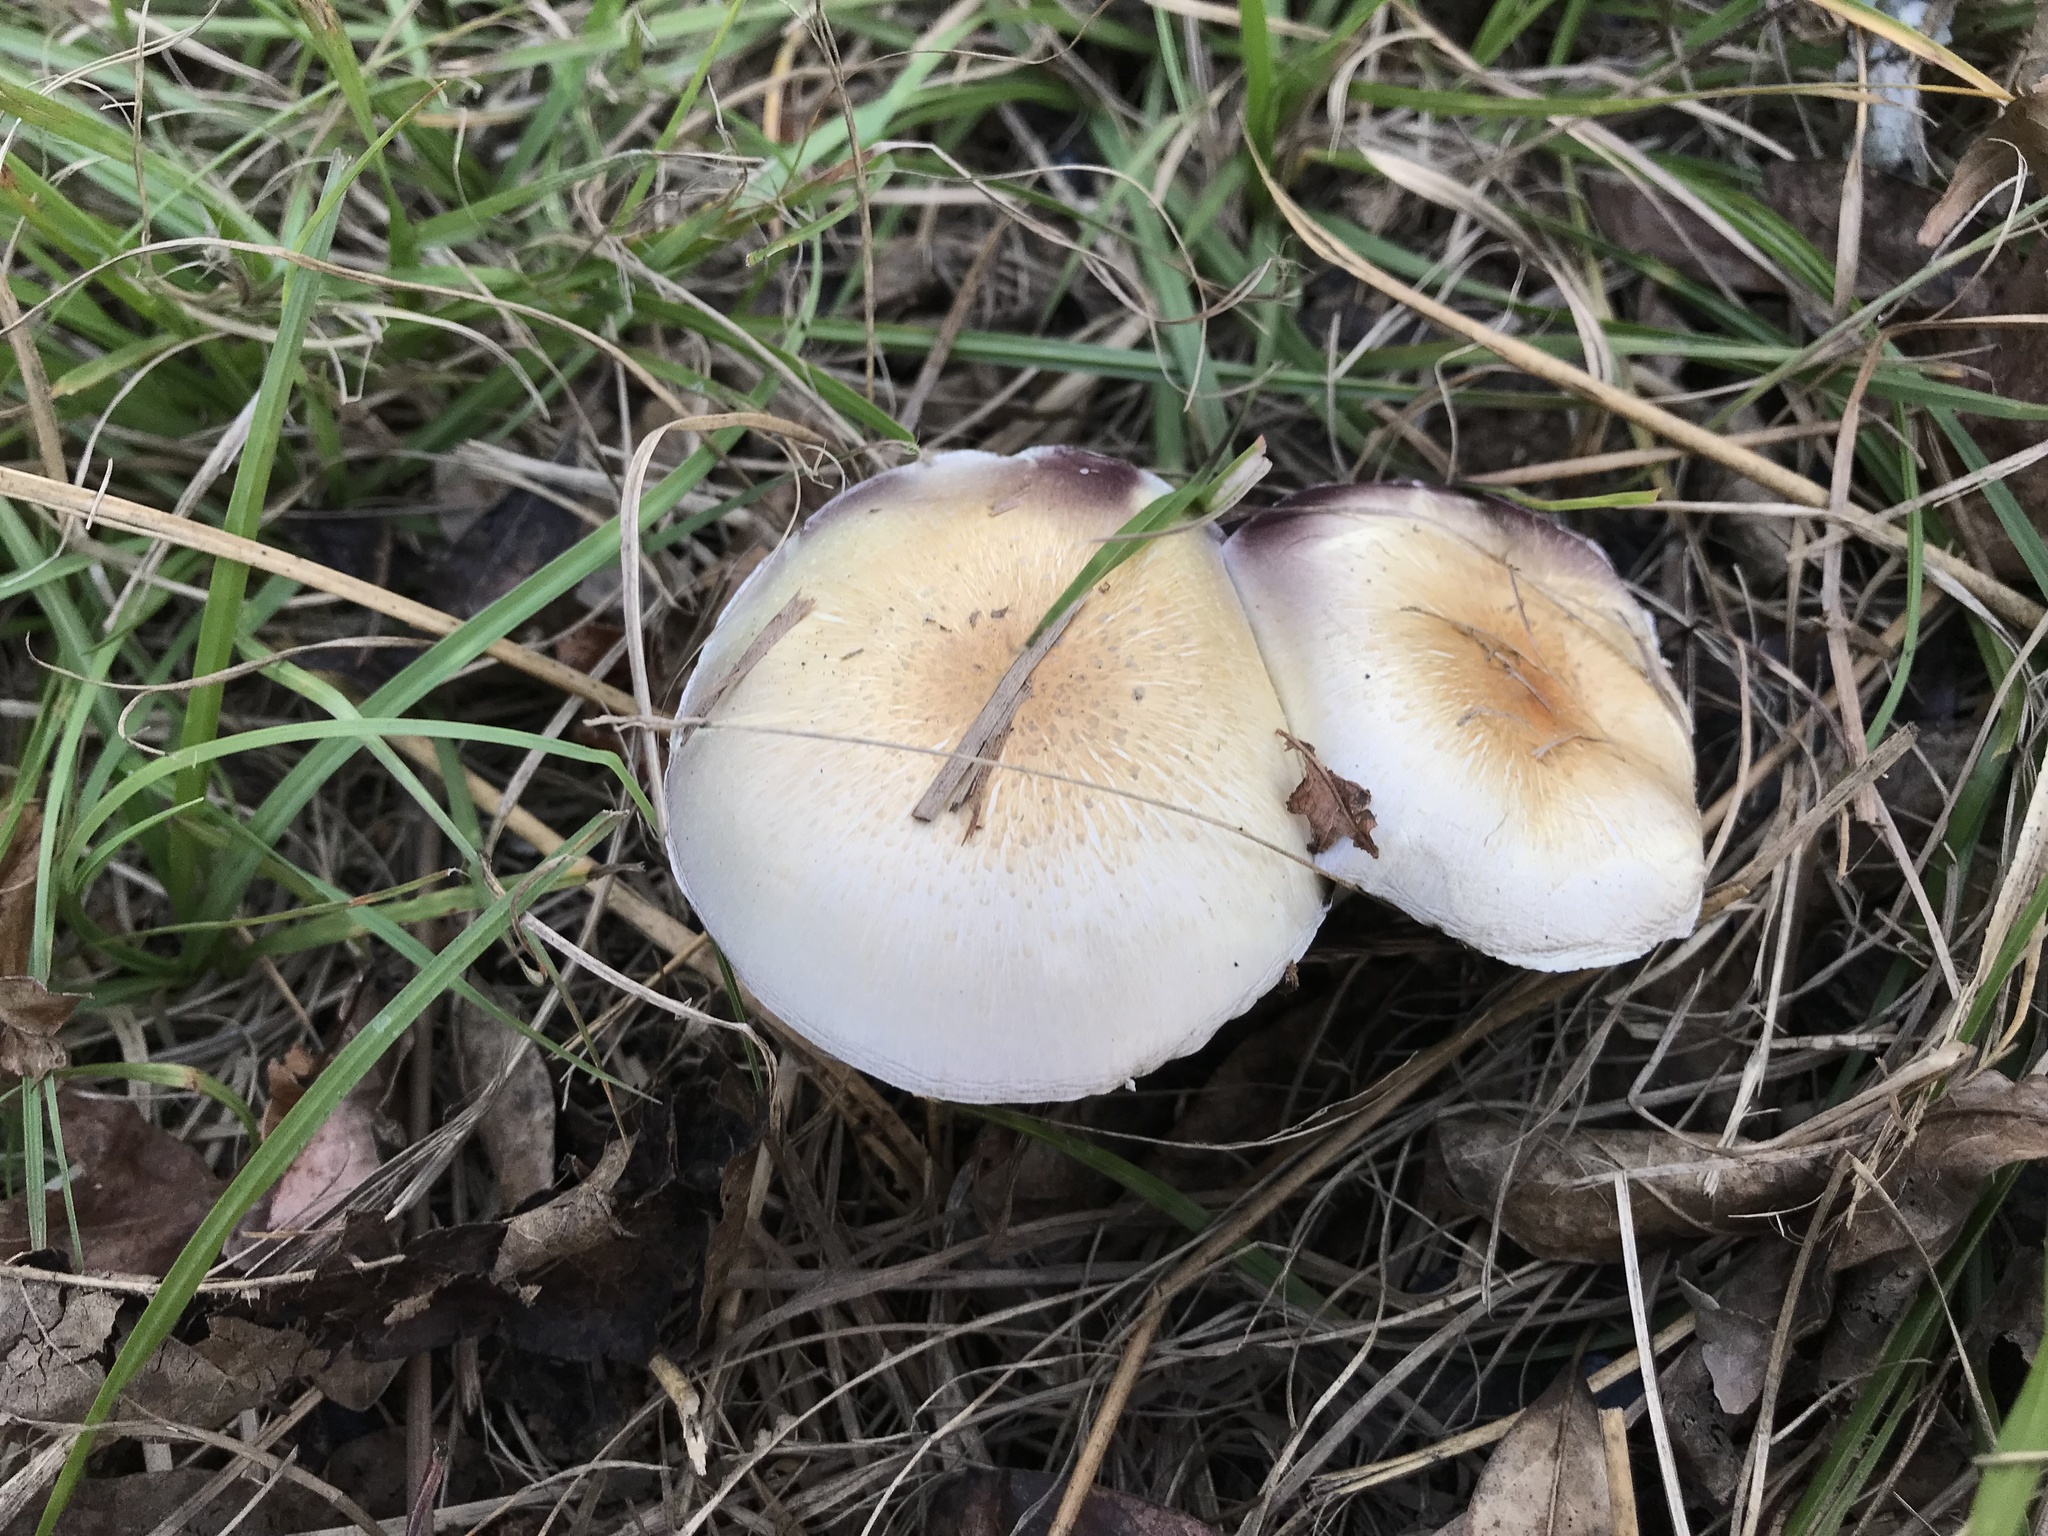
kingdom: Fungi
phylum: Basidiomycota
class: Agaricomycetes
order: Agaricales
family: Hymenogastraceae
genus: Psilocybe
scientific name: Psilocybe cubensis
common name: Golden brownie
